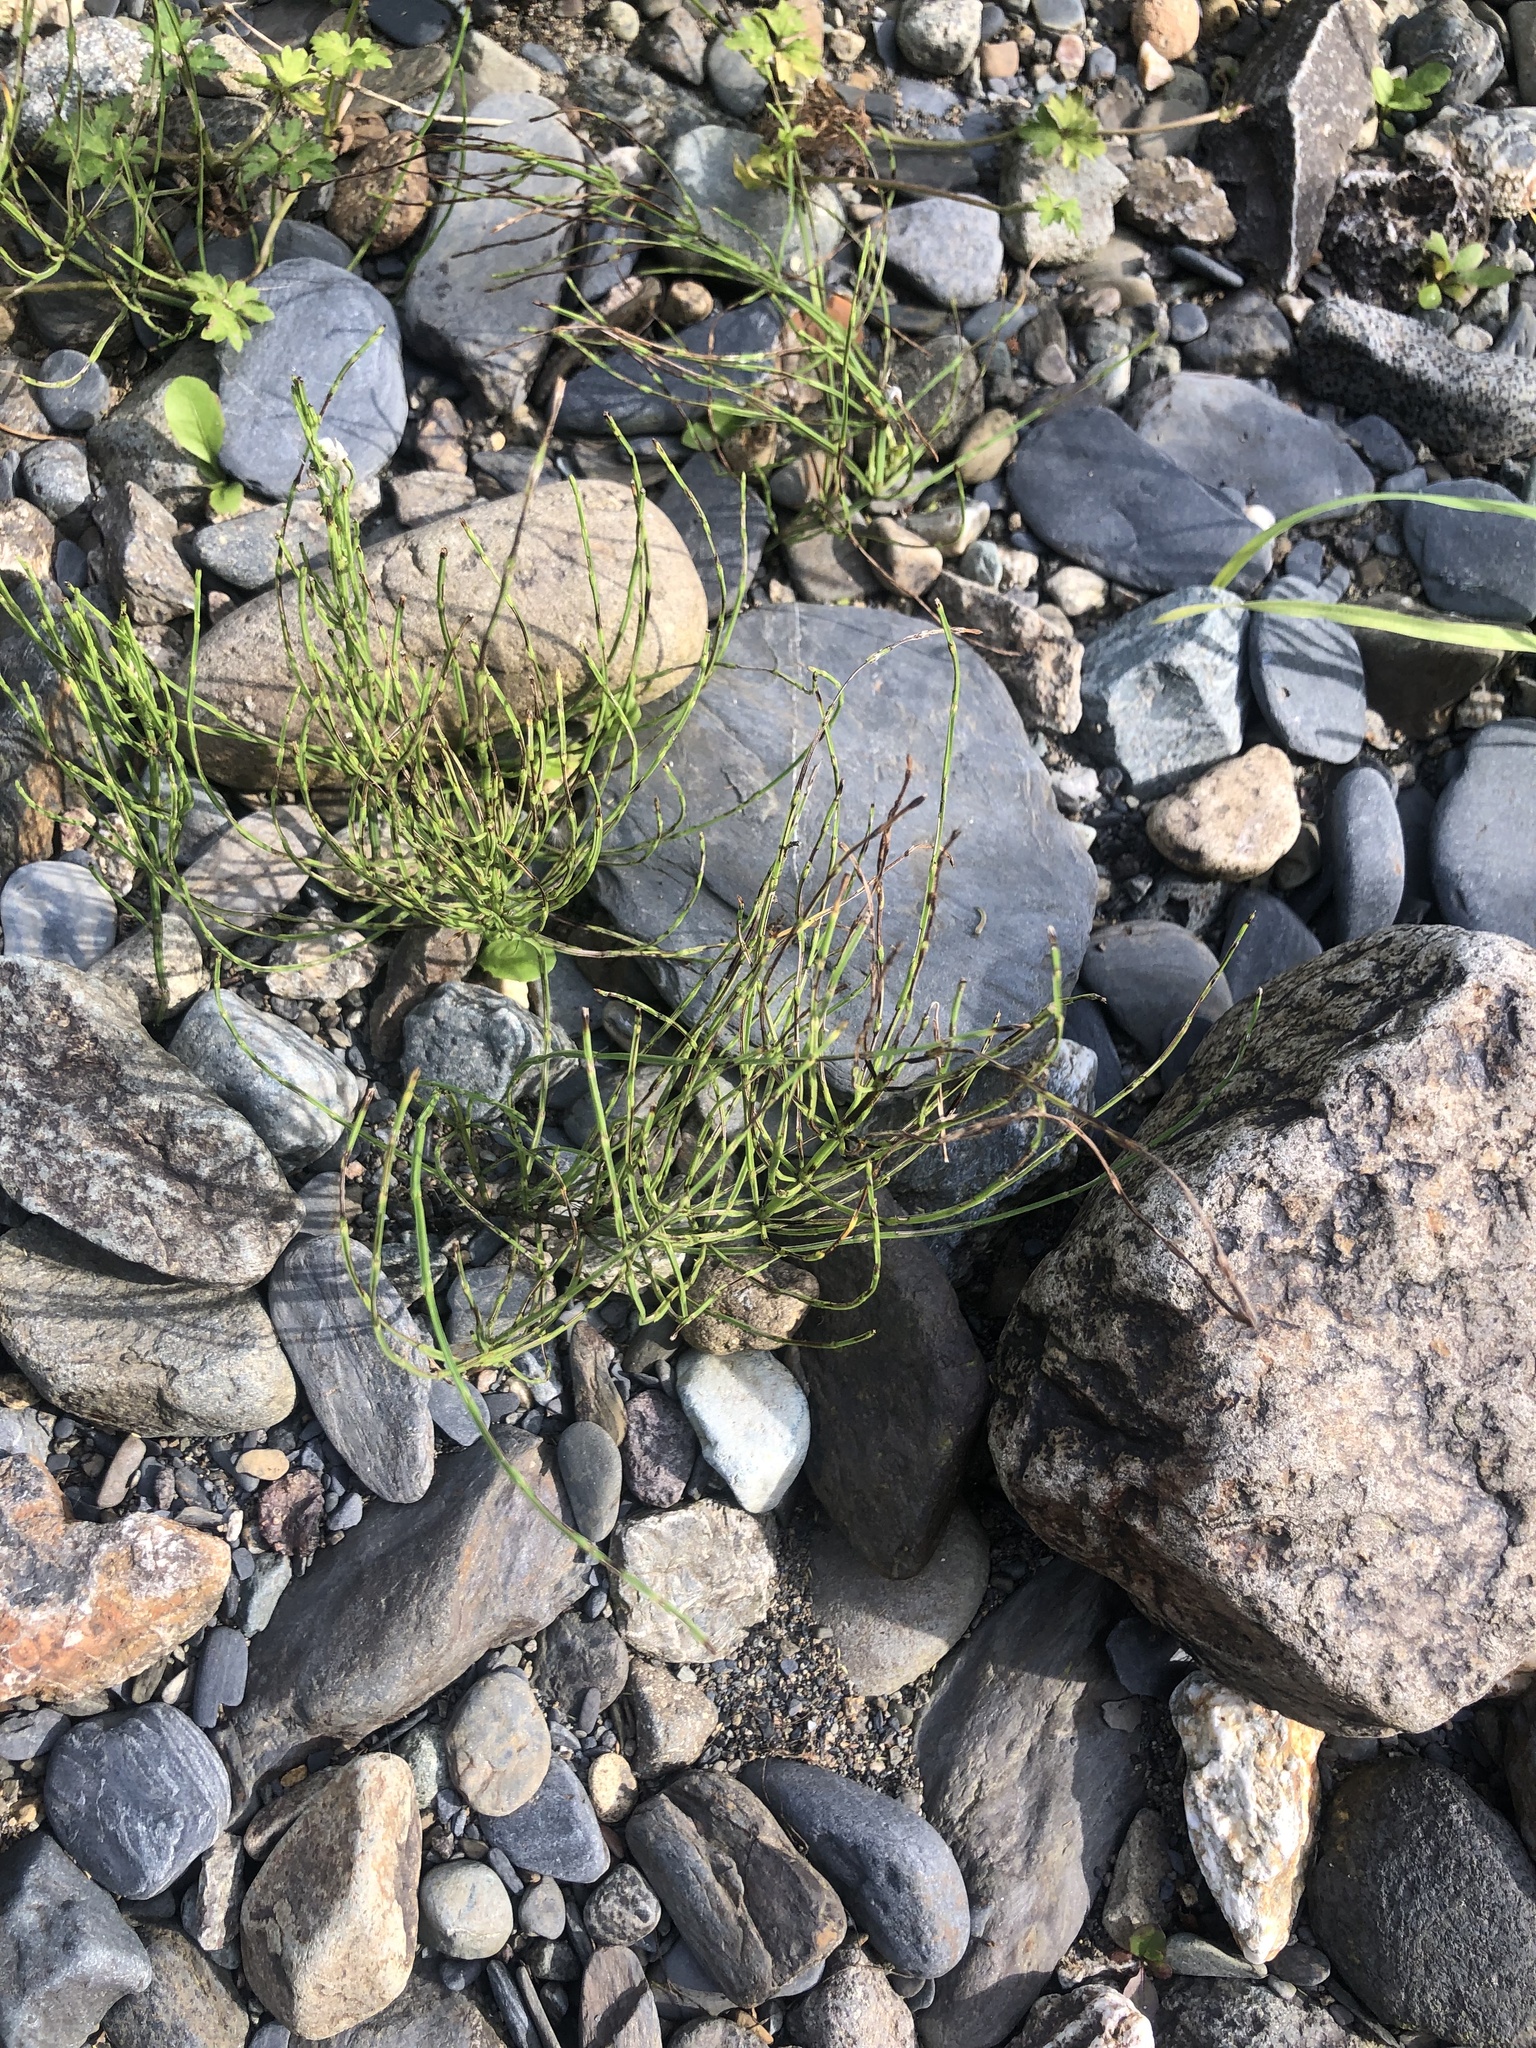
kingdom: Plantae
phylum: Tracheophyta
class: Polypodiopsida
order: Equisetales
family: Equisetaceae
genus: Equisetum
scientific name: Equisetum arvense
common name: Field horsetail
